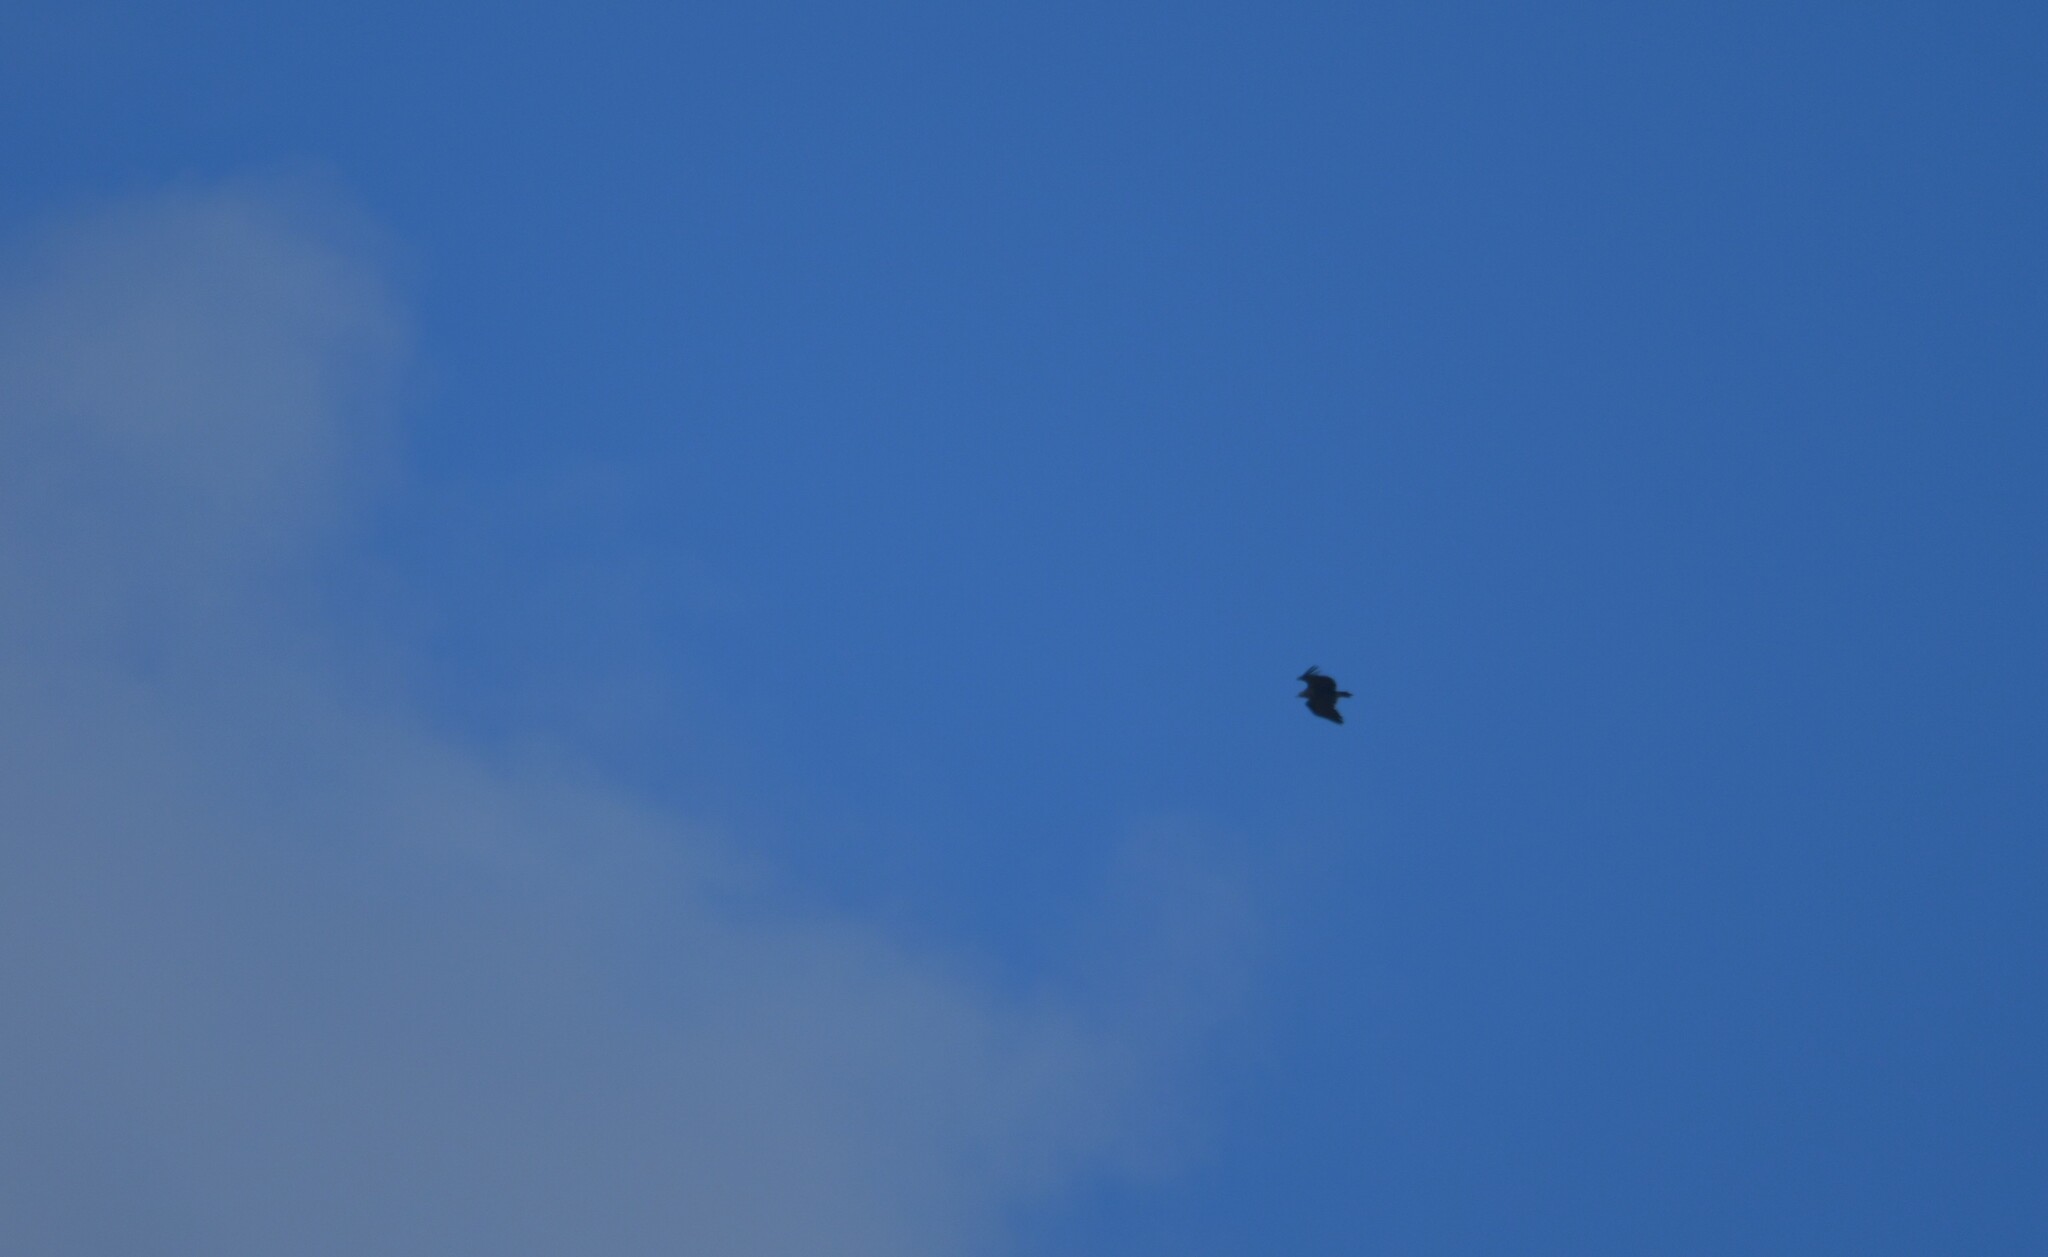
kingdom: Animalia
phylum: Chordata
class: Aves
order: Accipitriformes
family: Accipitridae
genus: Aegypius
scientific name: Aegypius monachus
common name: Cinereous vulture
